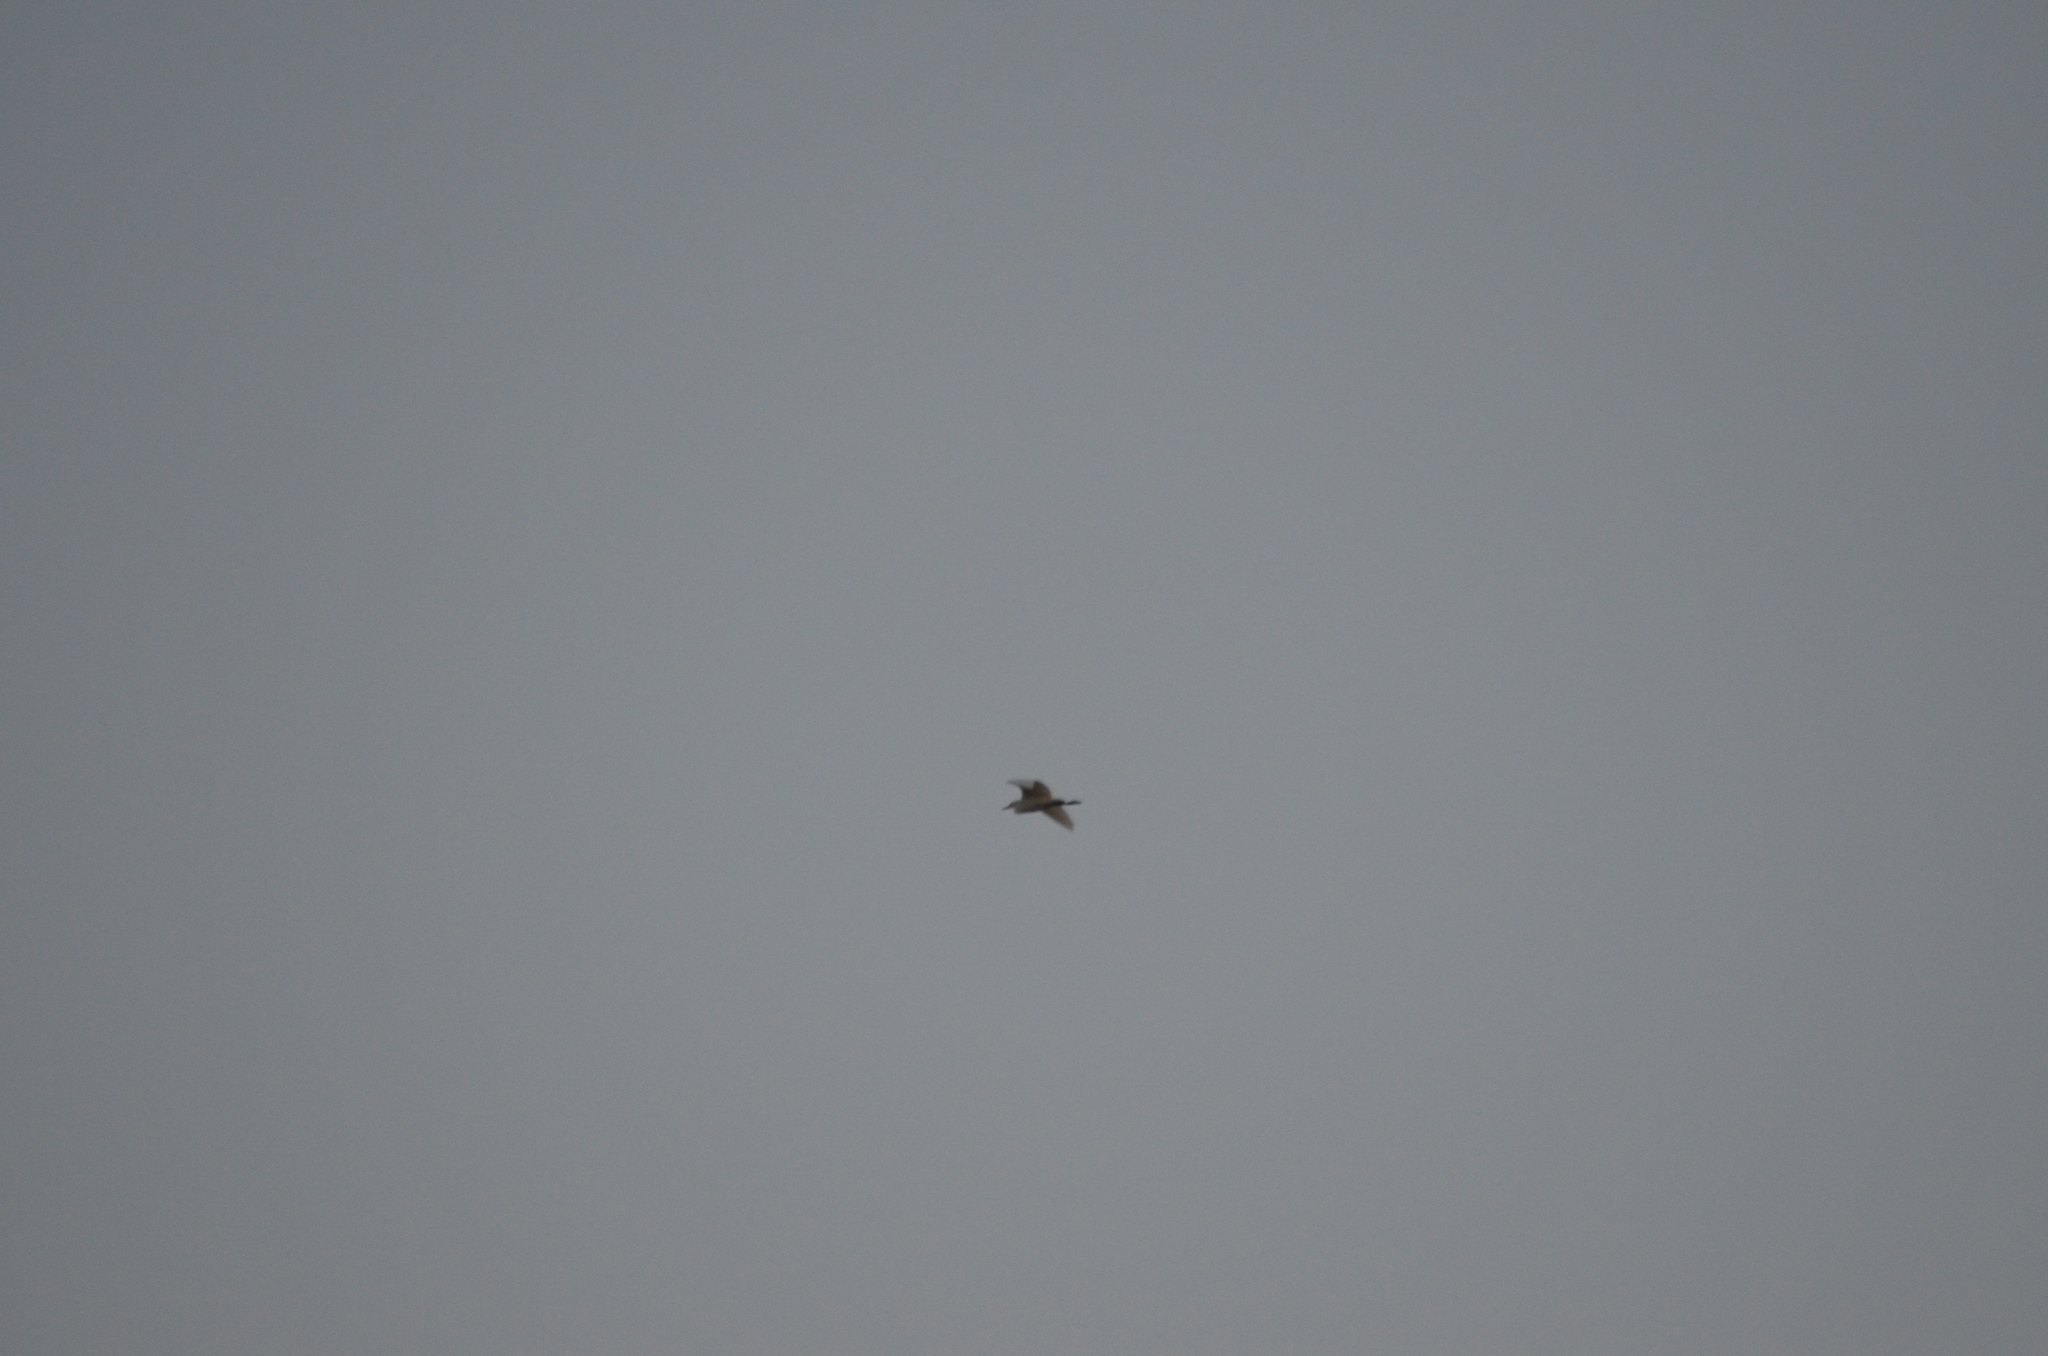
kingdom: Animalia
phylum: Chordata
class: Aves
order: Pelecaniformes
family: Ardeidae
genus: Bubulcus
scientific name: Bubulcus ibis
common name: Cattle egret
